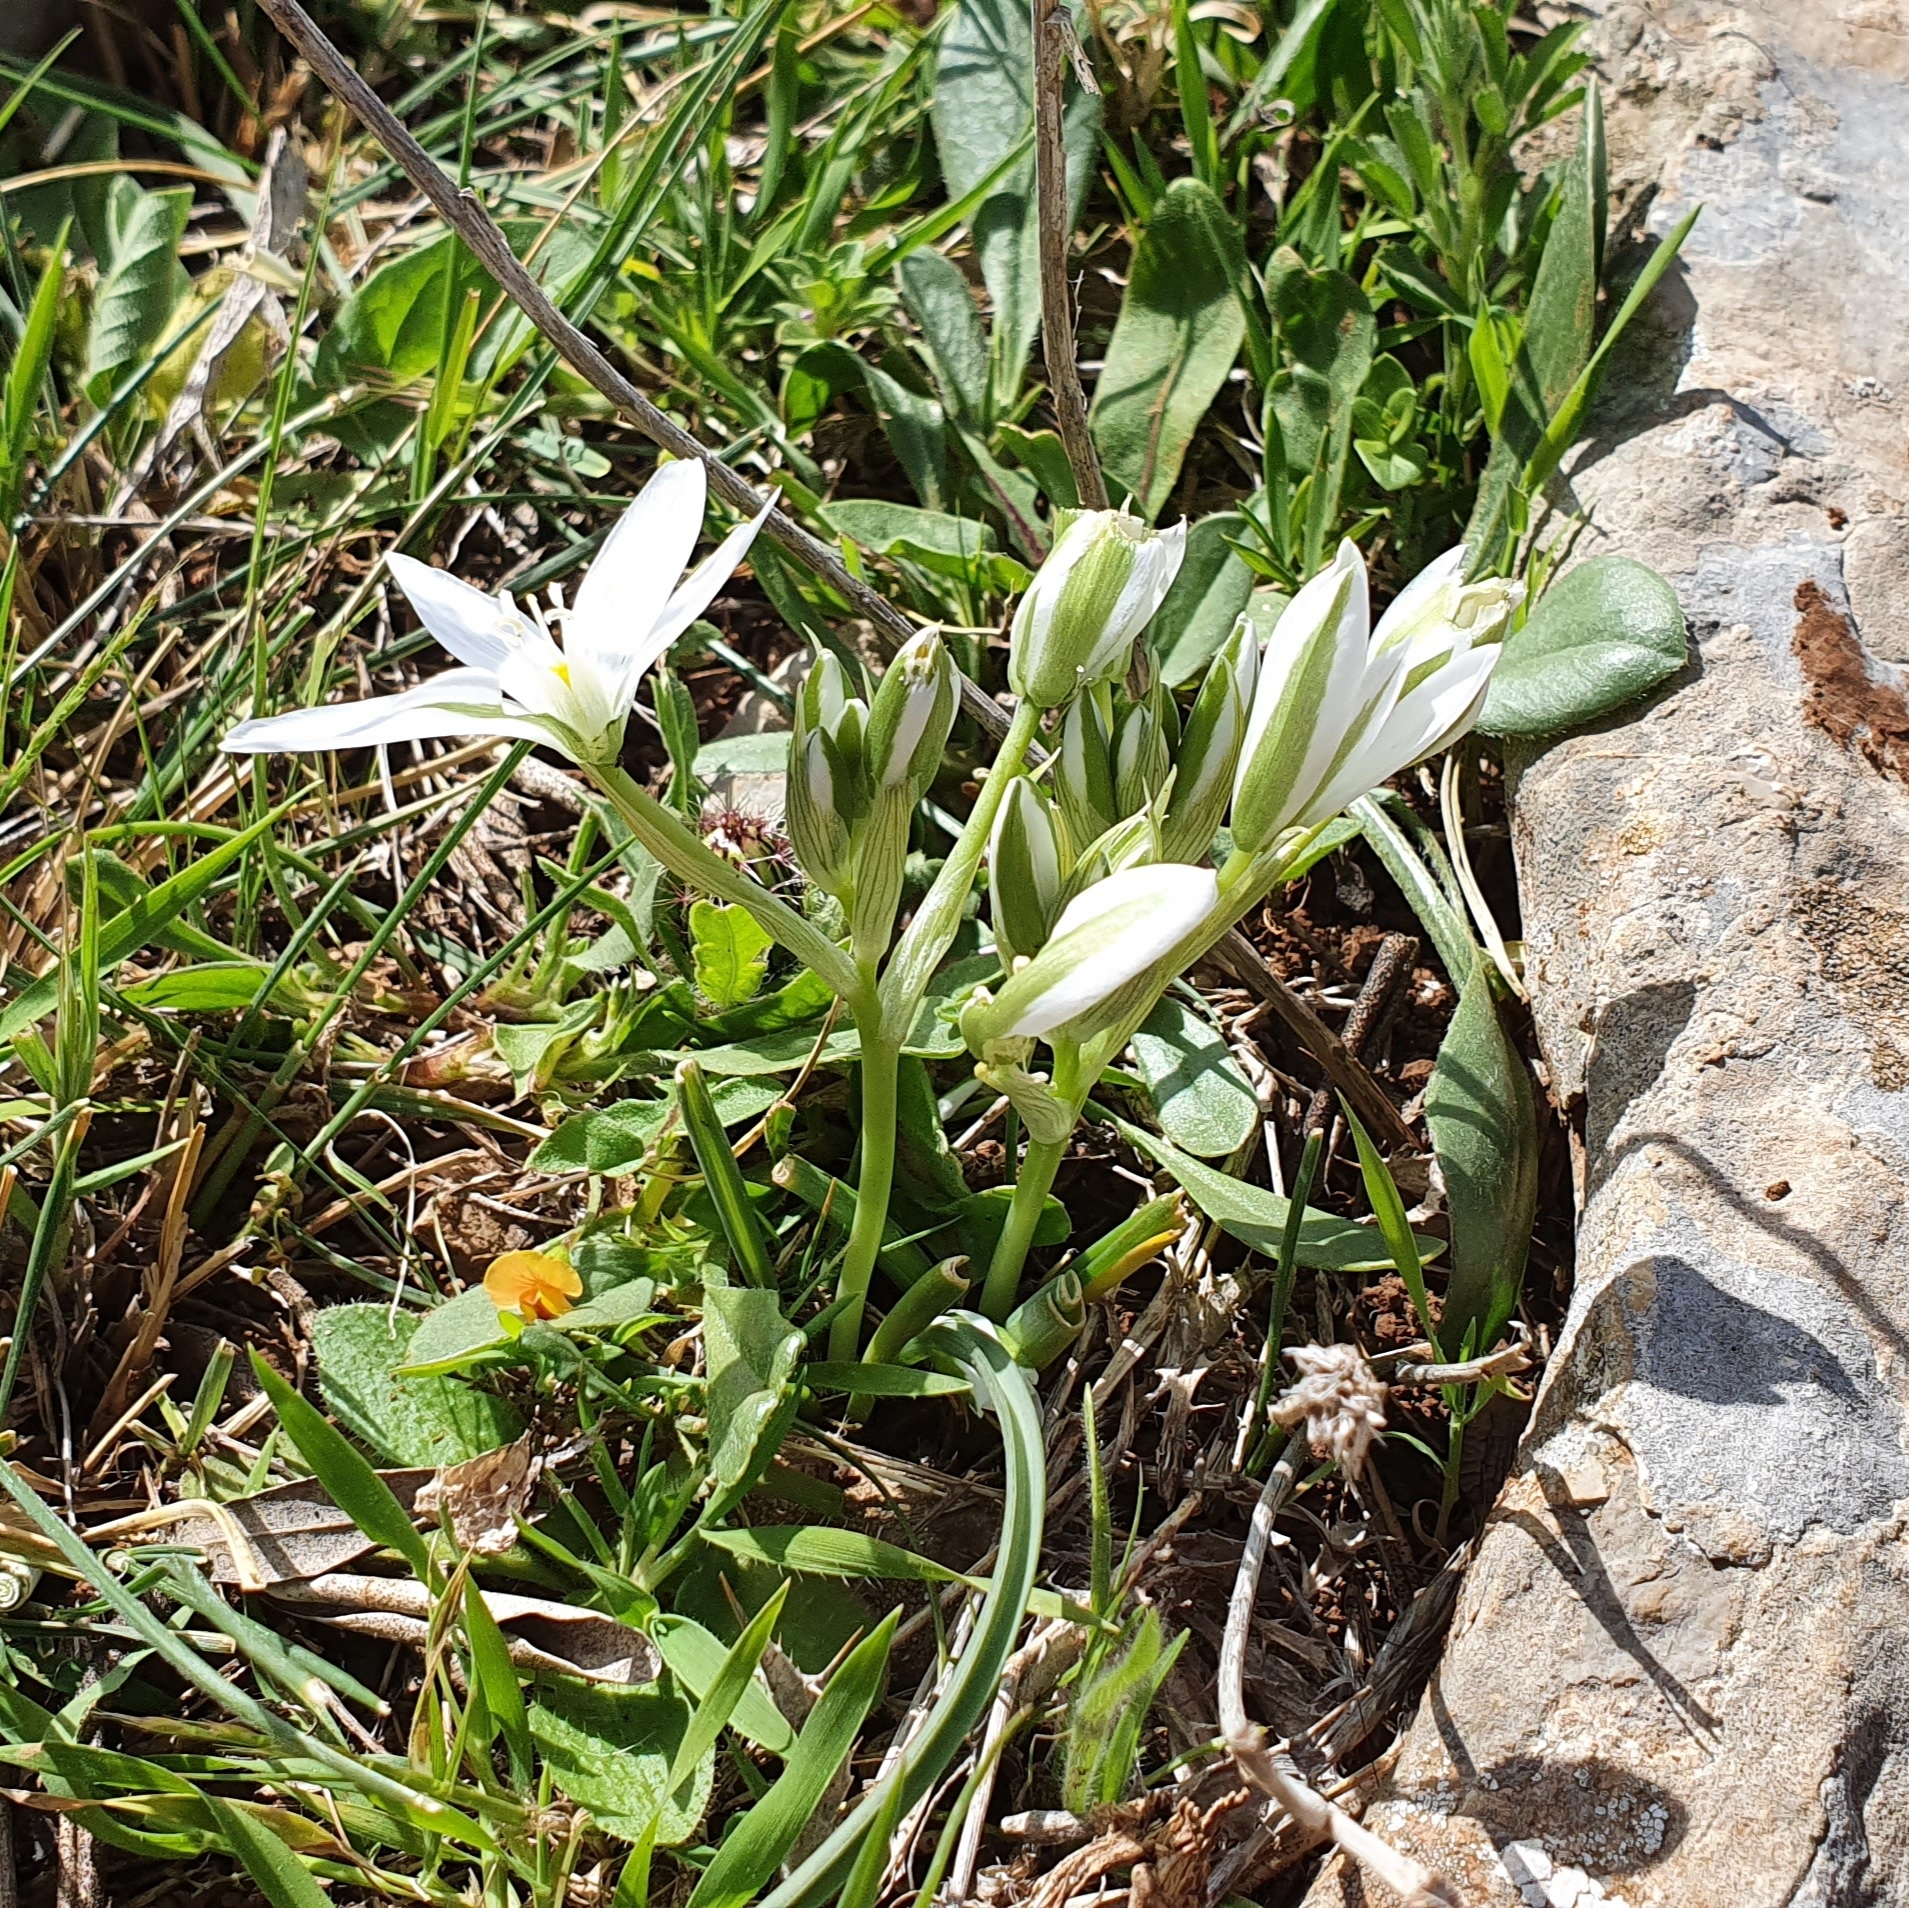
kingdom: Plantae
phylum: Tracheophyta
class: Liliopsida
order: Asparagales
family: Asparagaceae
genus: Ornithogalum
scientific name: Ornithogalum baeticum
